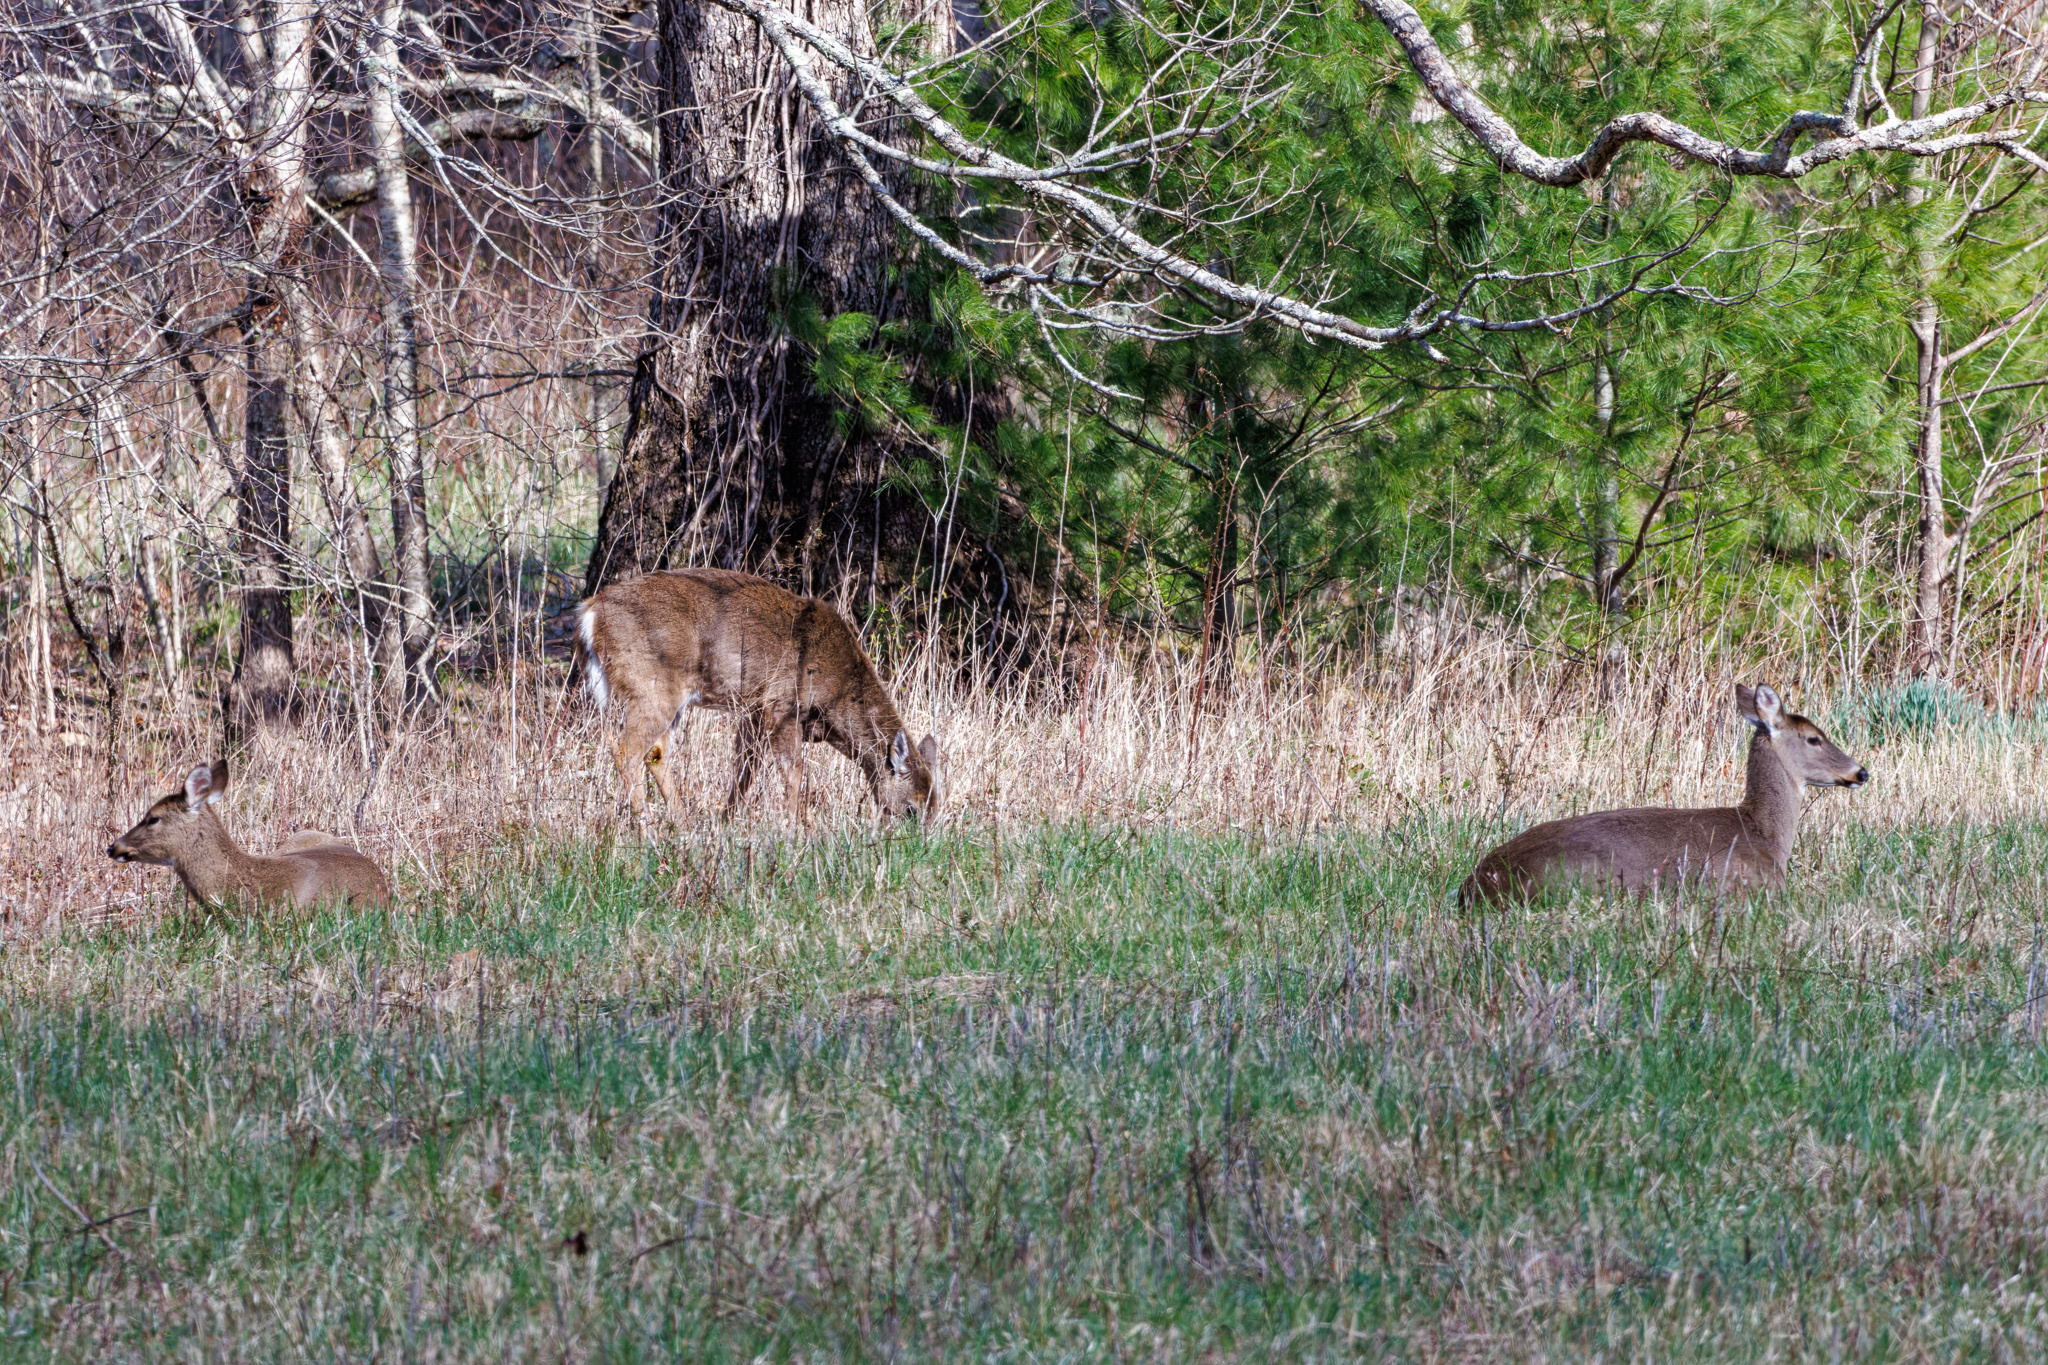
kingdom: Animalia
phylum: Chordata
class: Mammalia
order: Artiodactyla
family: Cervidae
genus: Odocoileus
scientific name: Odocoileus virginianus
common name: White-tailed deer
